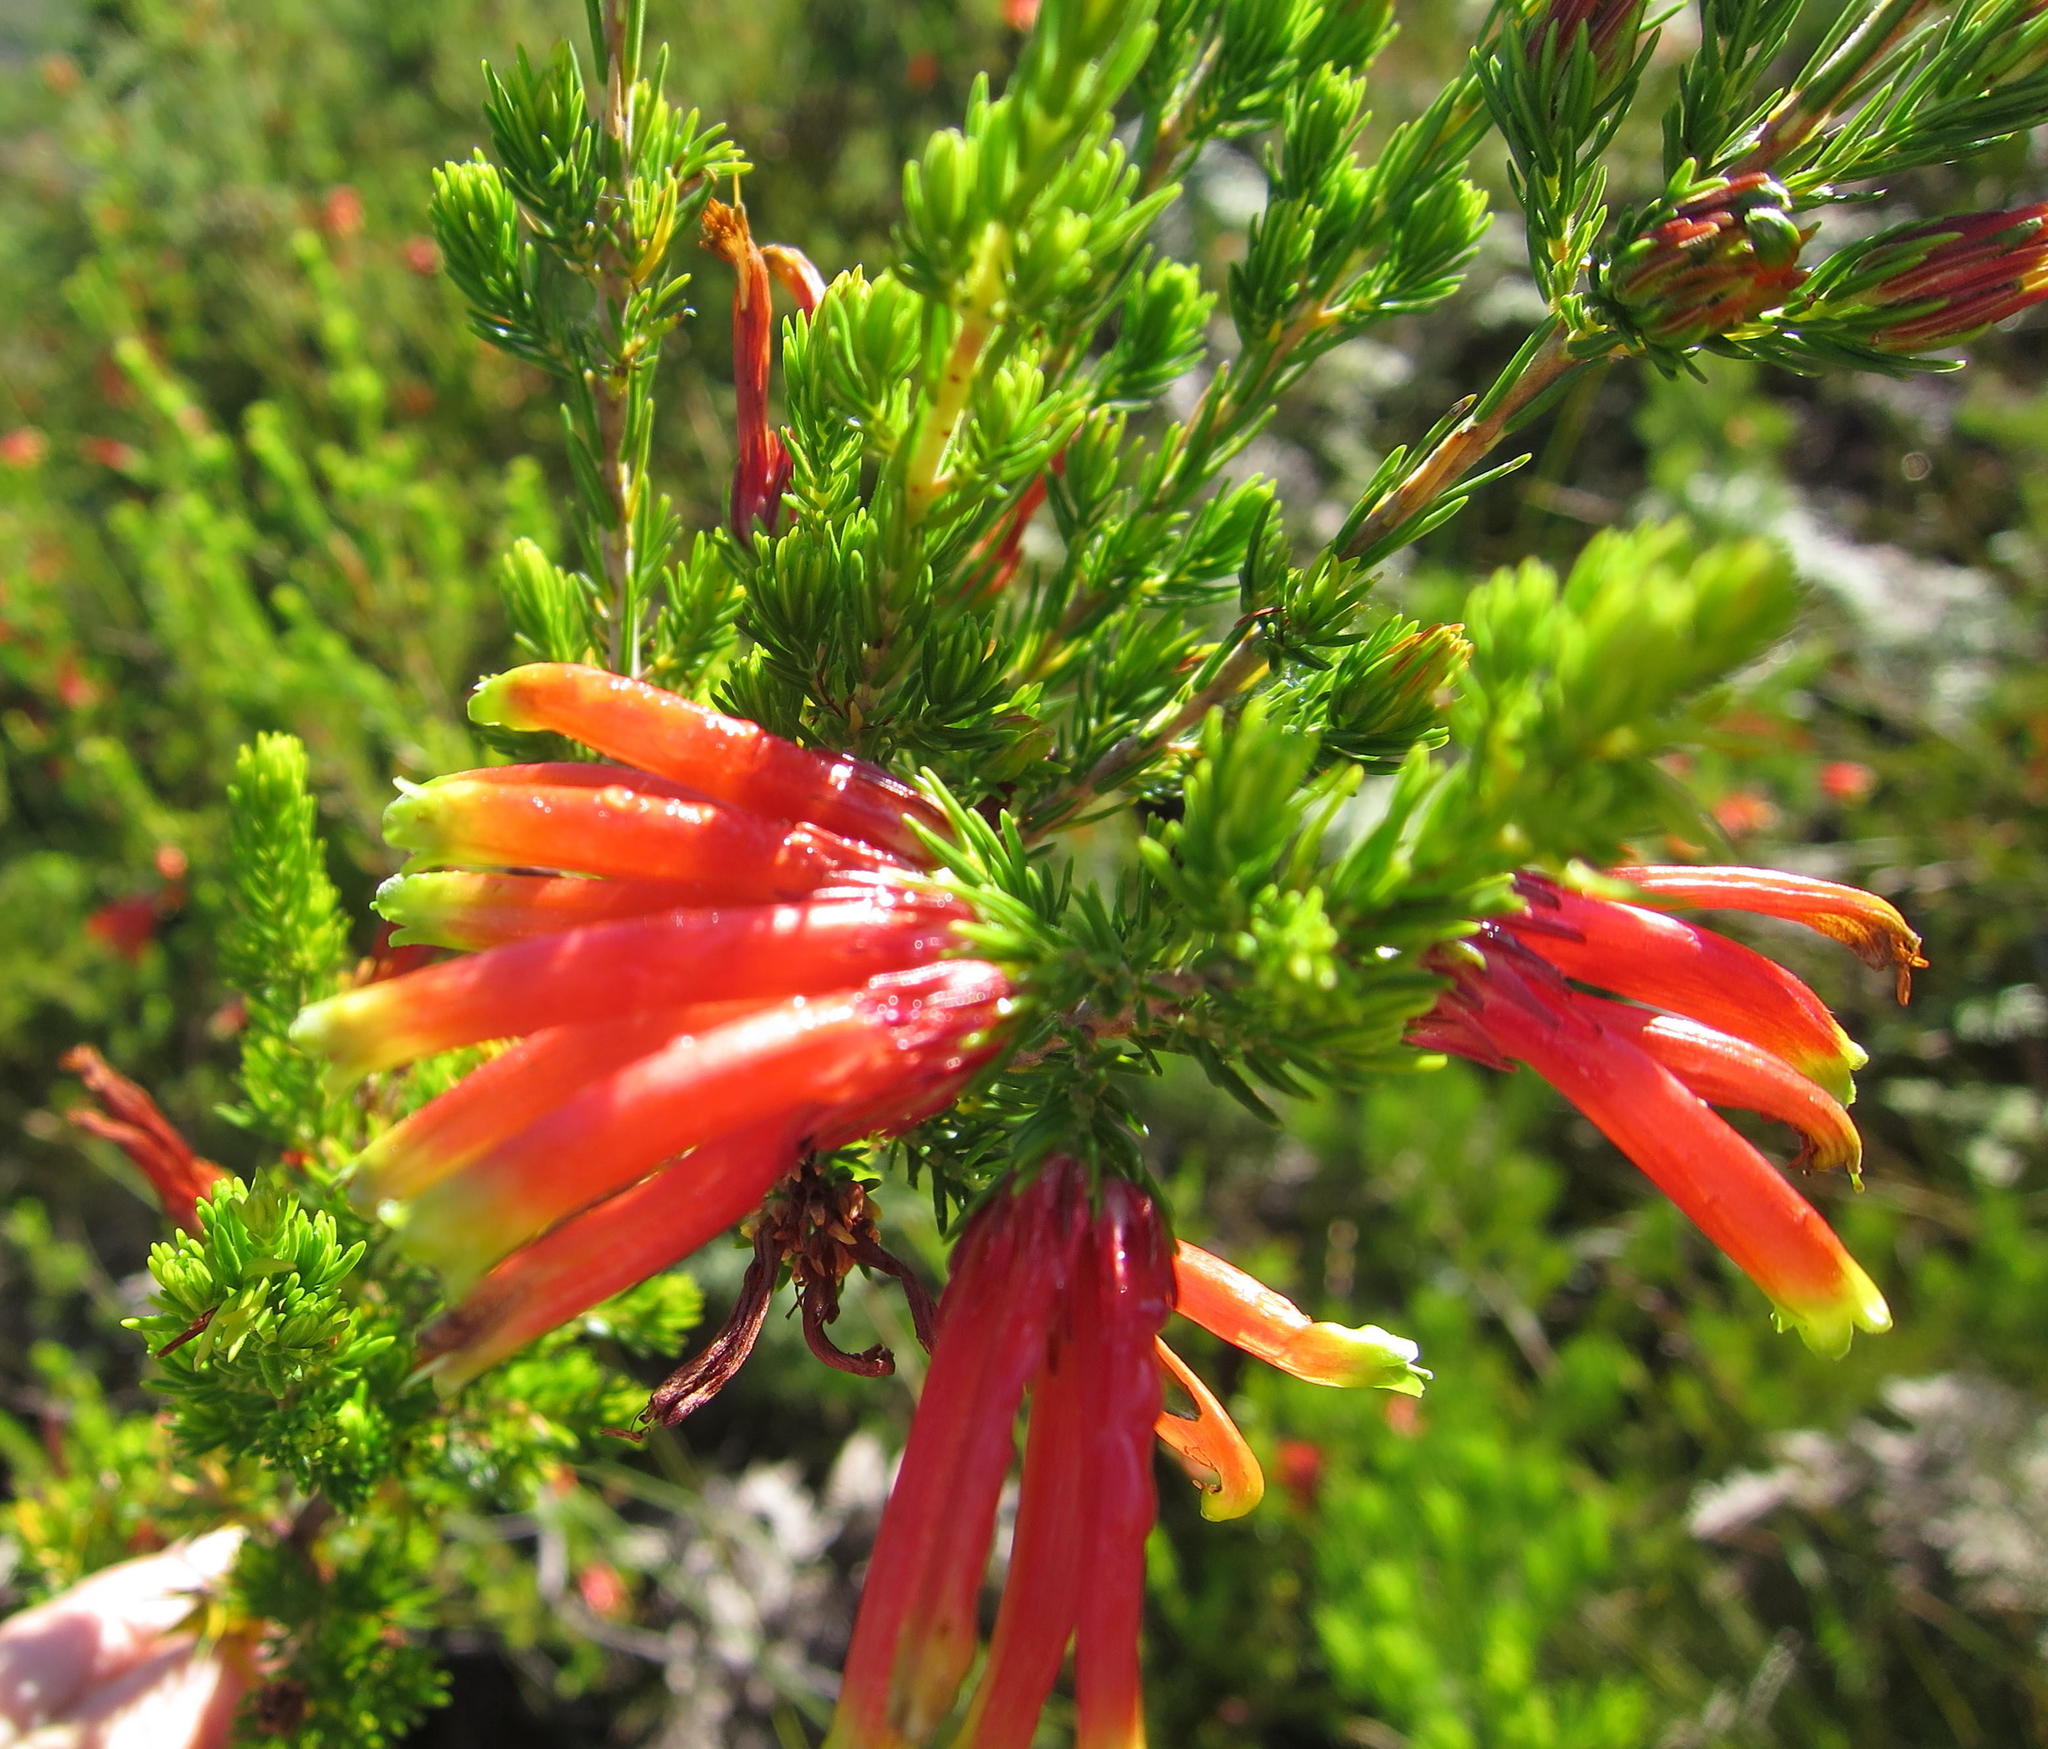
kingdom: Plantae
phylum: Tracheophyta
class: Magnoliopsida
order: Ericales
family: Ericaceae
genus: Erica
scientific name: Erica unicolor
